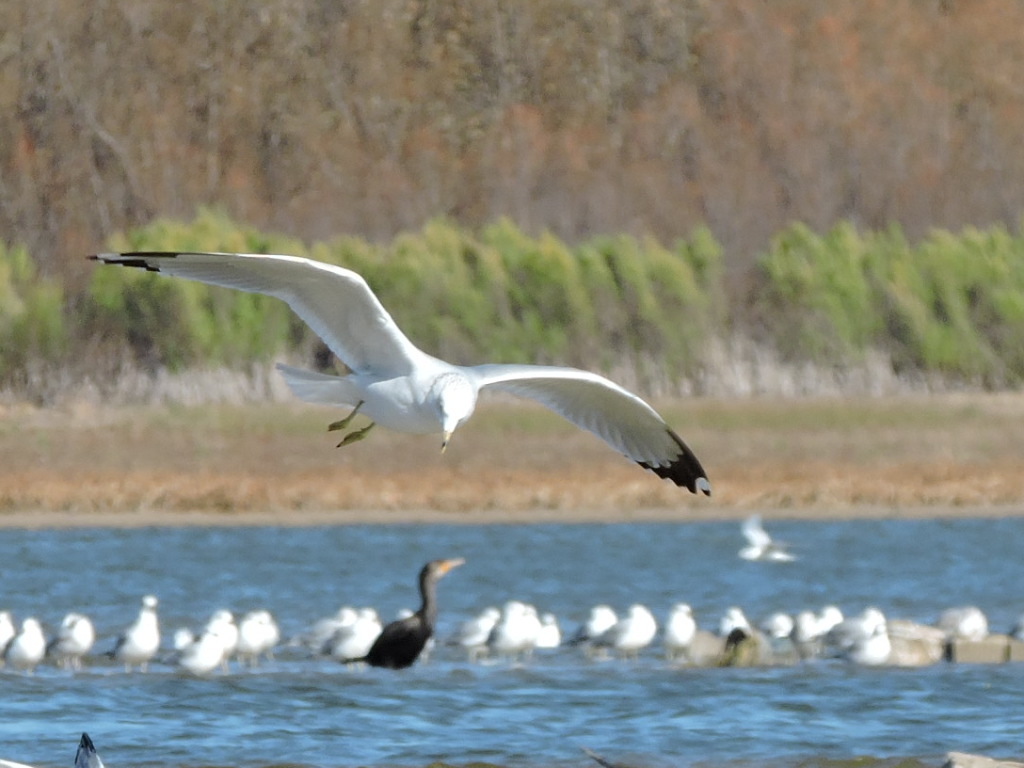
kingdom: Animalia
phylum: Chordata
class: Aves
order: Charadriiformes
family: Laridae
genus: Larus
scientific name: Larus delawarensis
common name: Ring-billed gull
